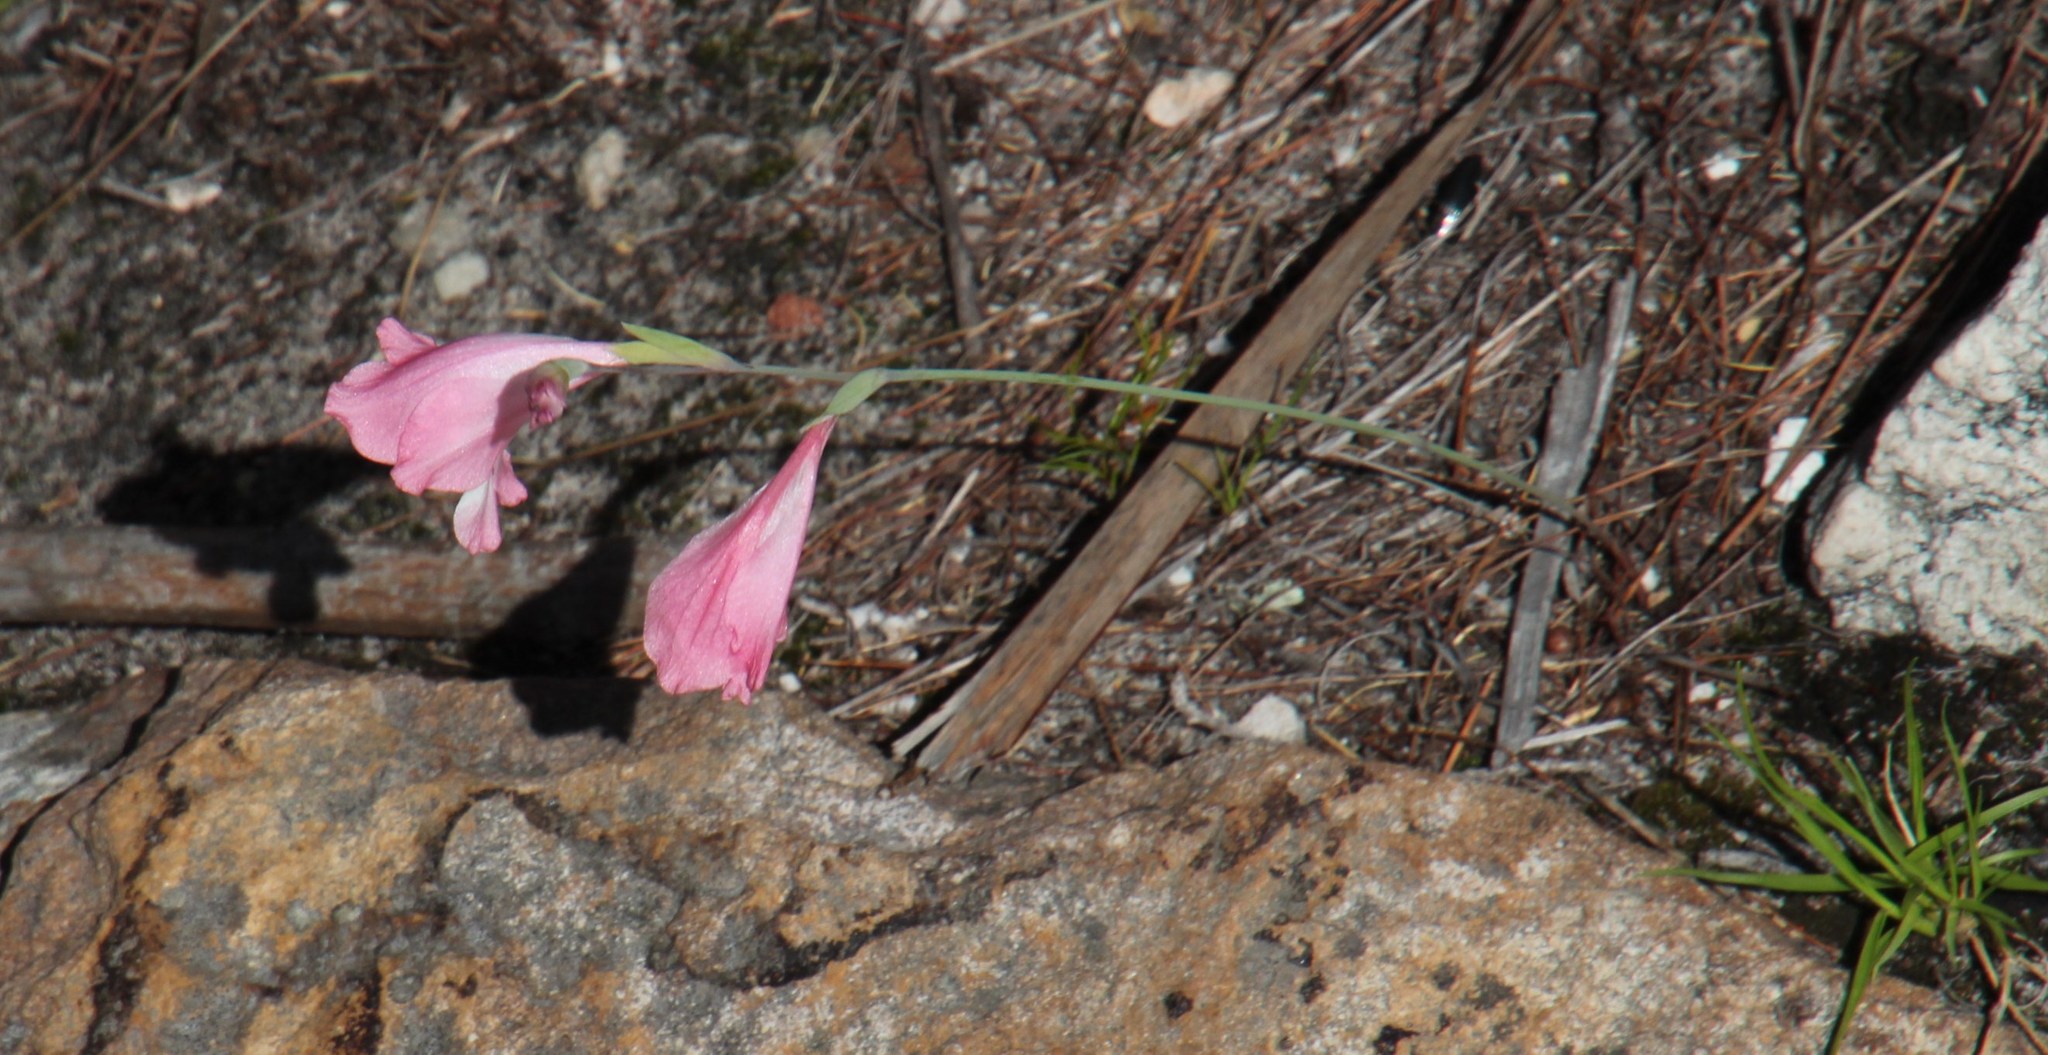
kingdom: Plantae
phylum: Tracheophyta
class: Liliopsida
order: Asparagales
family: Iridaceae
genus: Gladiolus
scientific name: Gladiolus brevifolius
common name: March pypie
